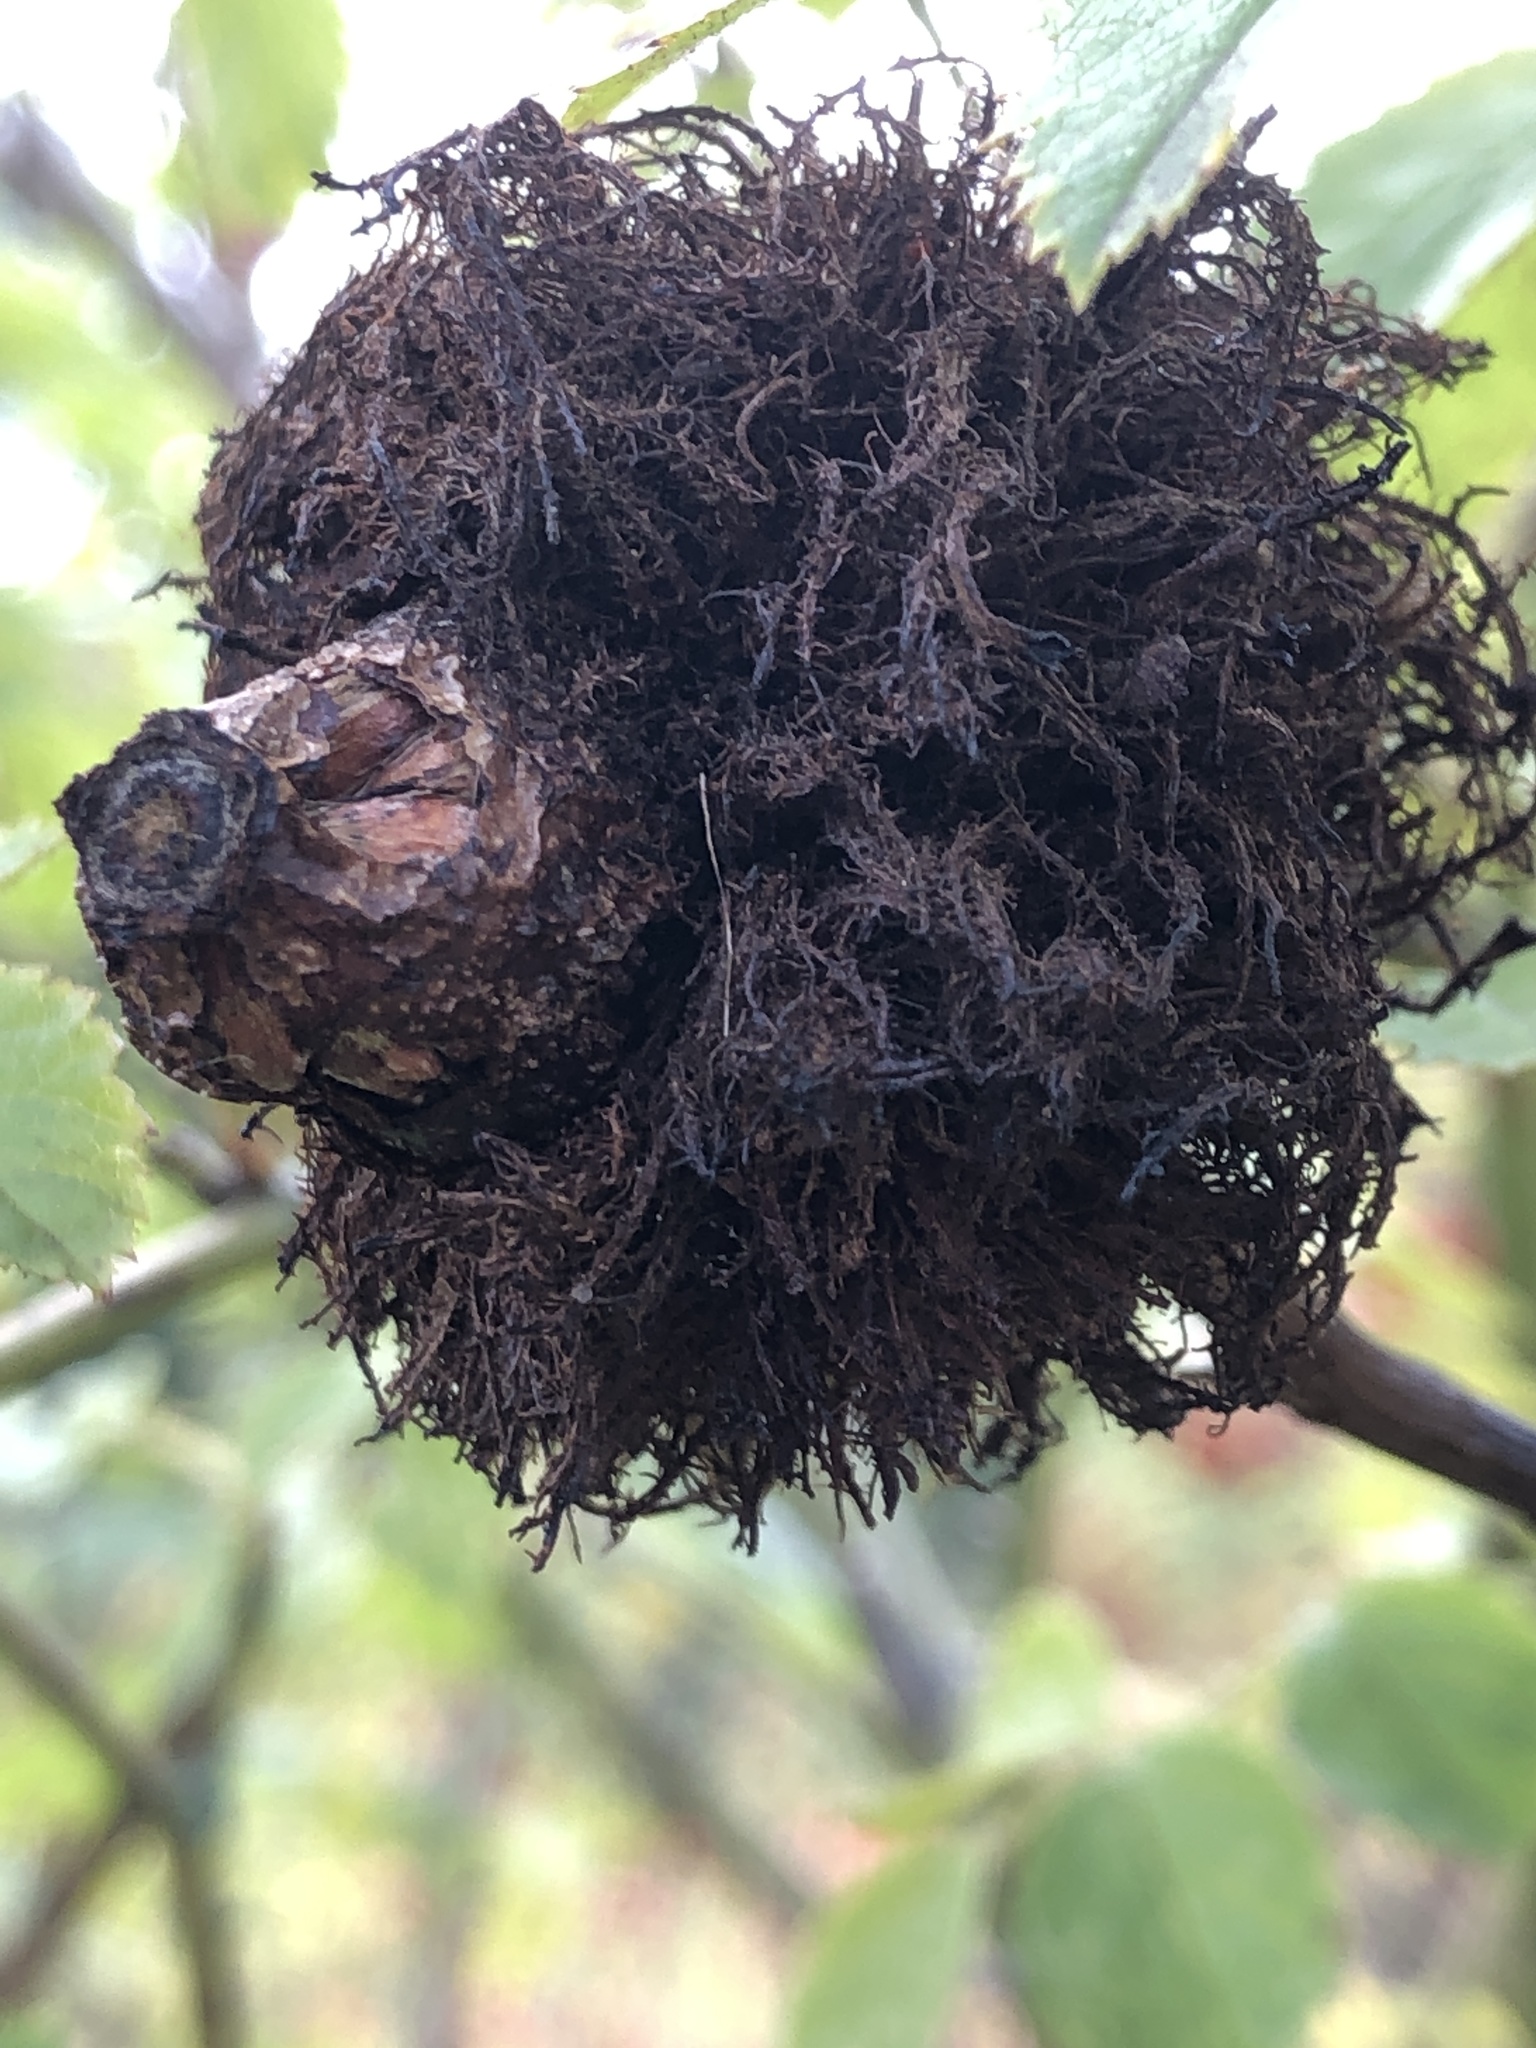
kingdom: Animalia
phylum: Arthropoda
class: Insecta
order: Hymenoptera
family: Cynipidae
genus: Diplolepis
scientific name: Diplolepis rosae
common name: Bedeguar gall
